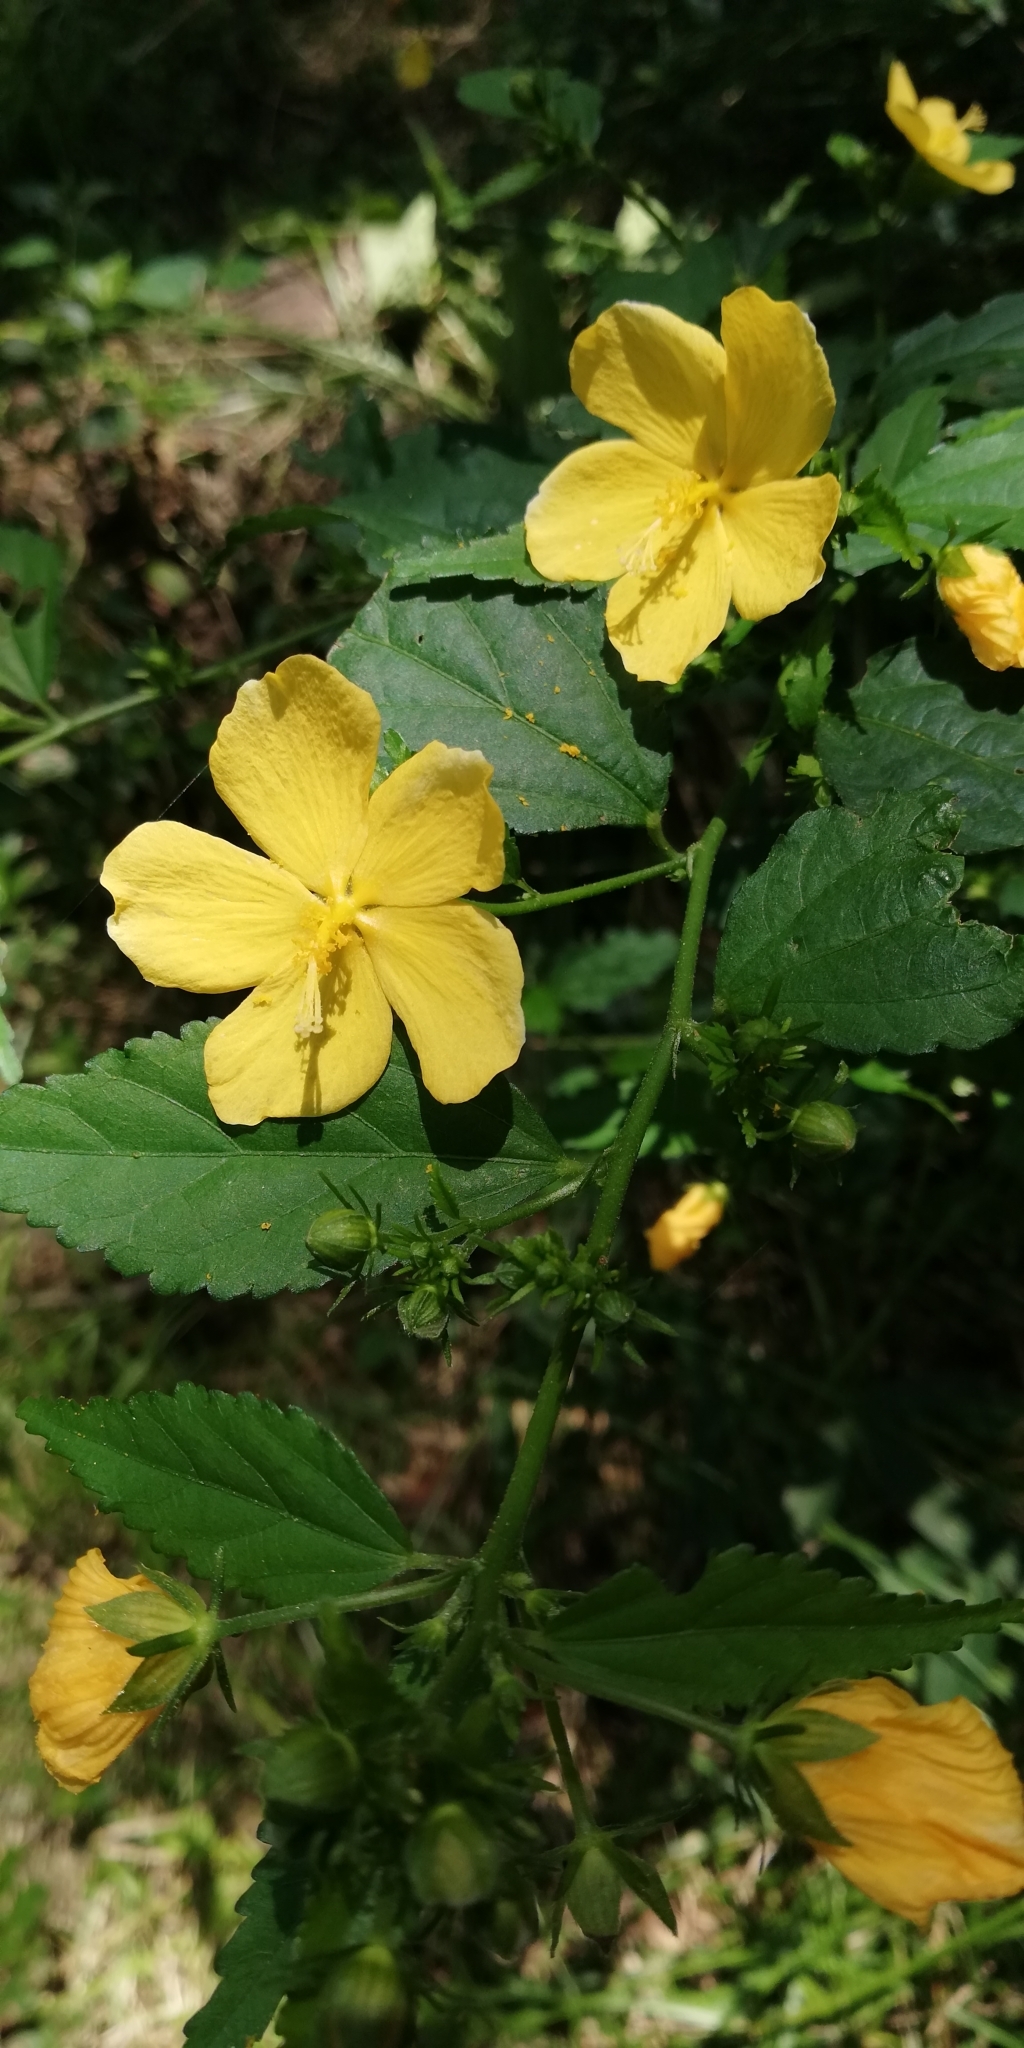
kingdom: Plantae
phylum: Tracheophyta
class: Magnoliopsida
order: Malvales
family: Malvaceae
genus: Pavonia
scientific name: Pavonia sepium
